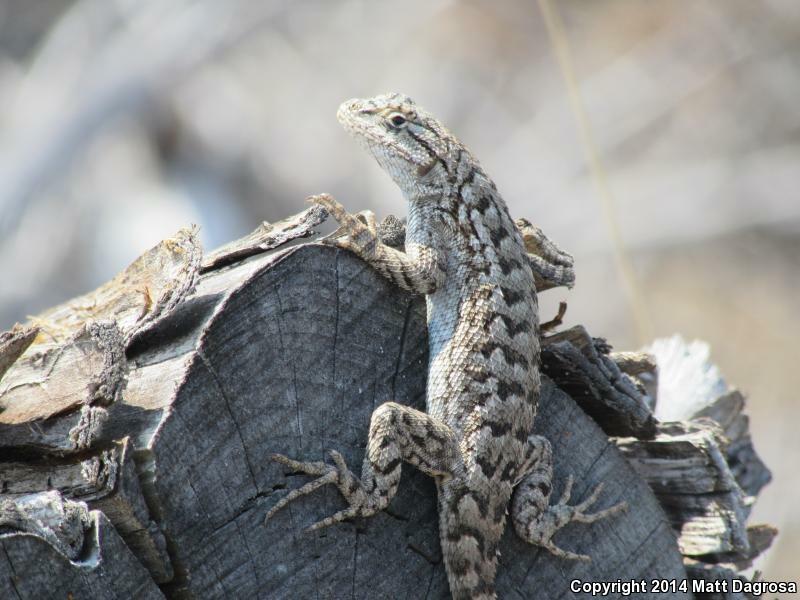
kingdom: Animalia
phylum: Chordata
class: Squamata
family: Phrynosomatidae
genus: Sceloporus
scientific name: Sceloporus occidentalis
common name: Western fence lizard
